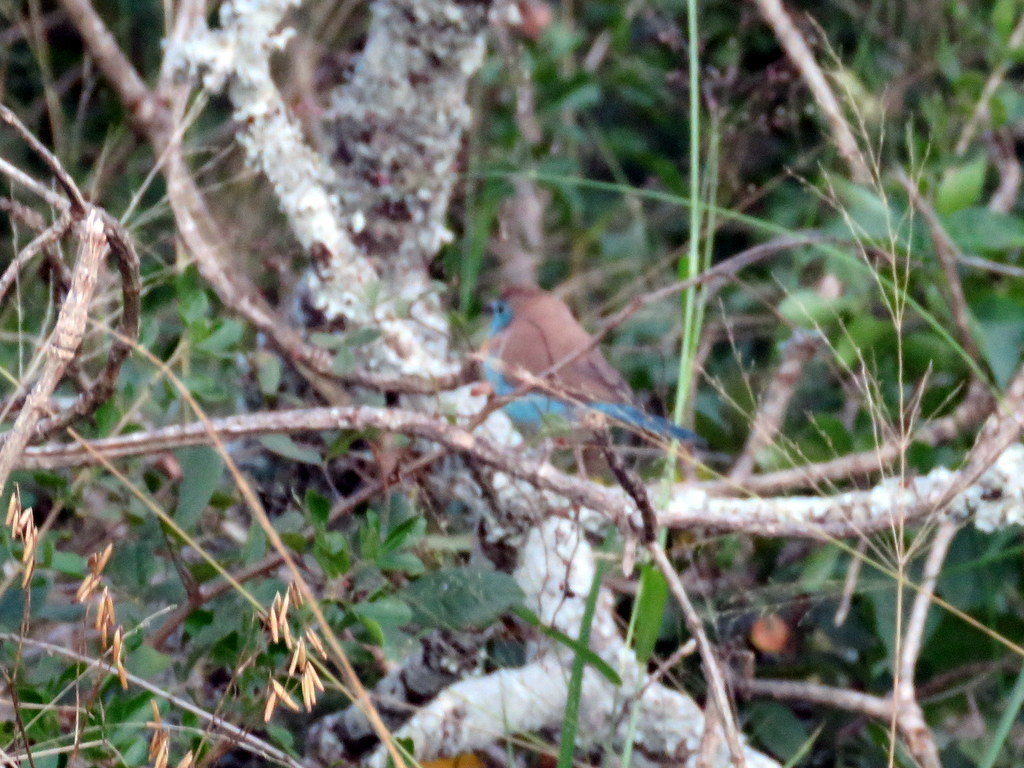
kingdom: Animalia
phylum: Chordata
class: Aves
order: Passeriformes
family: Estrildidae
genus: Uraeginthus
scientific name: Uraeginthus angolensis
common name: Blue waxbill
